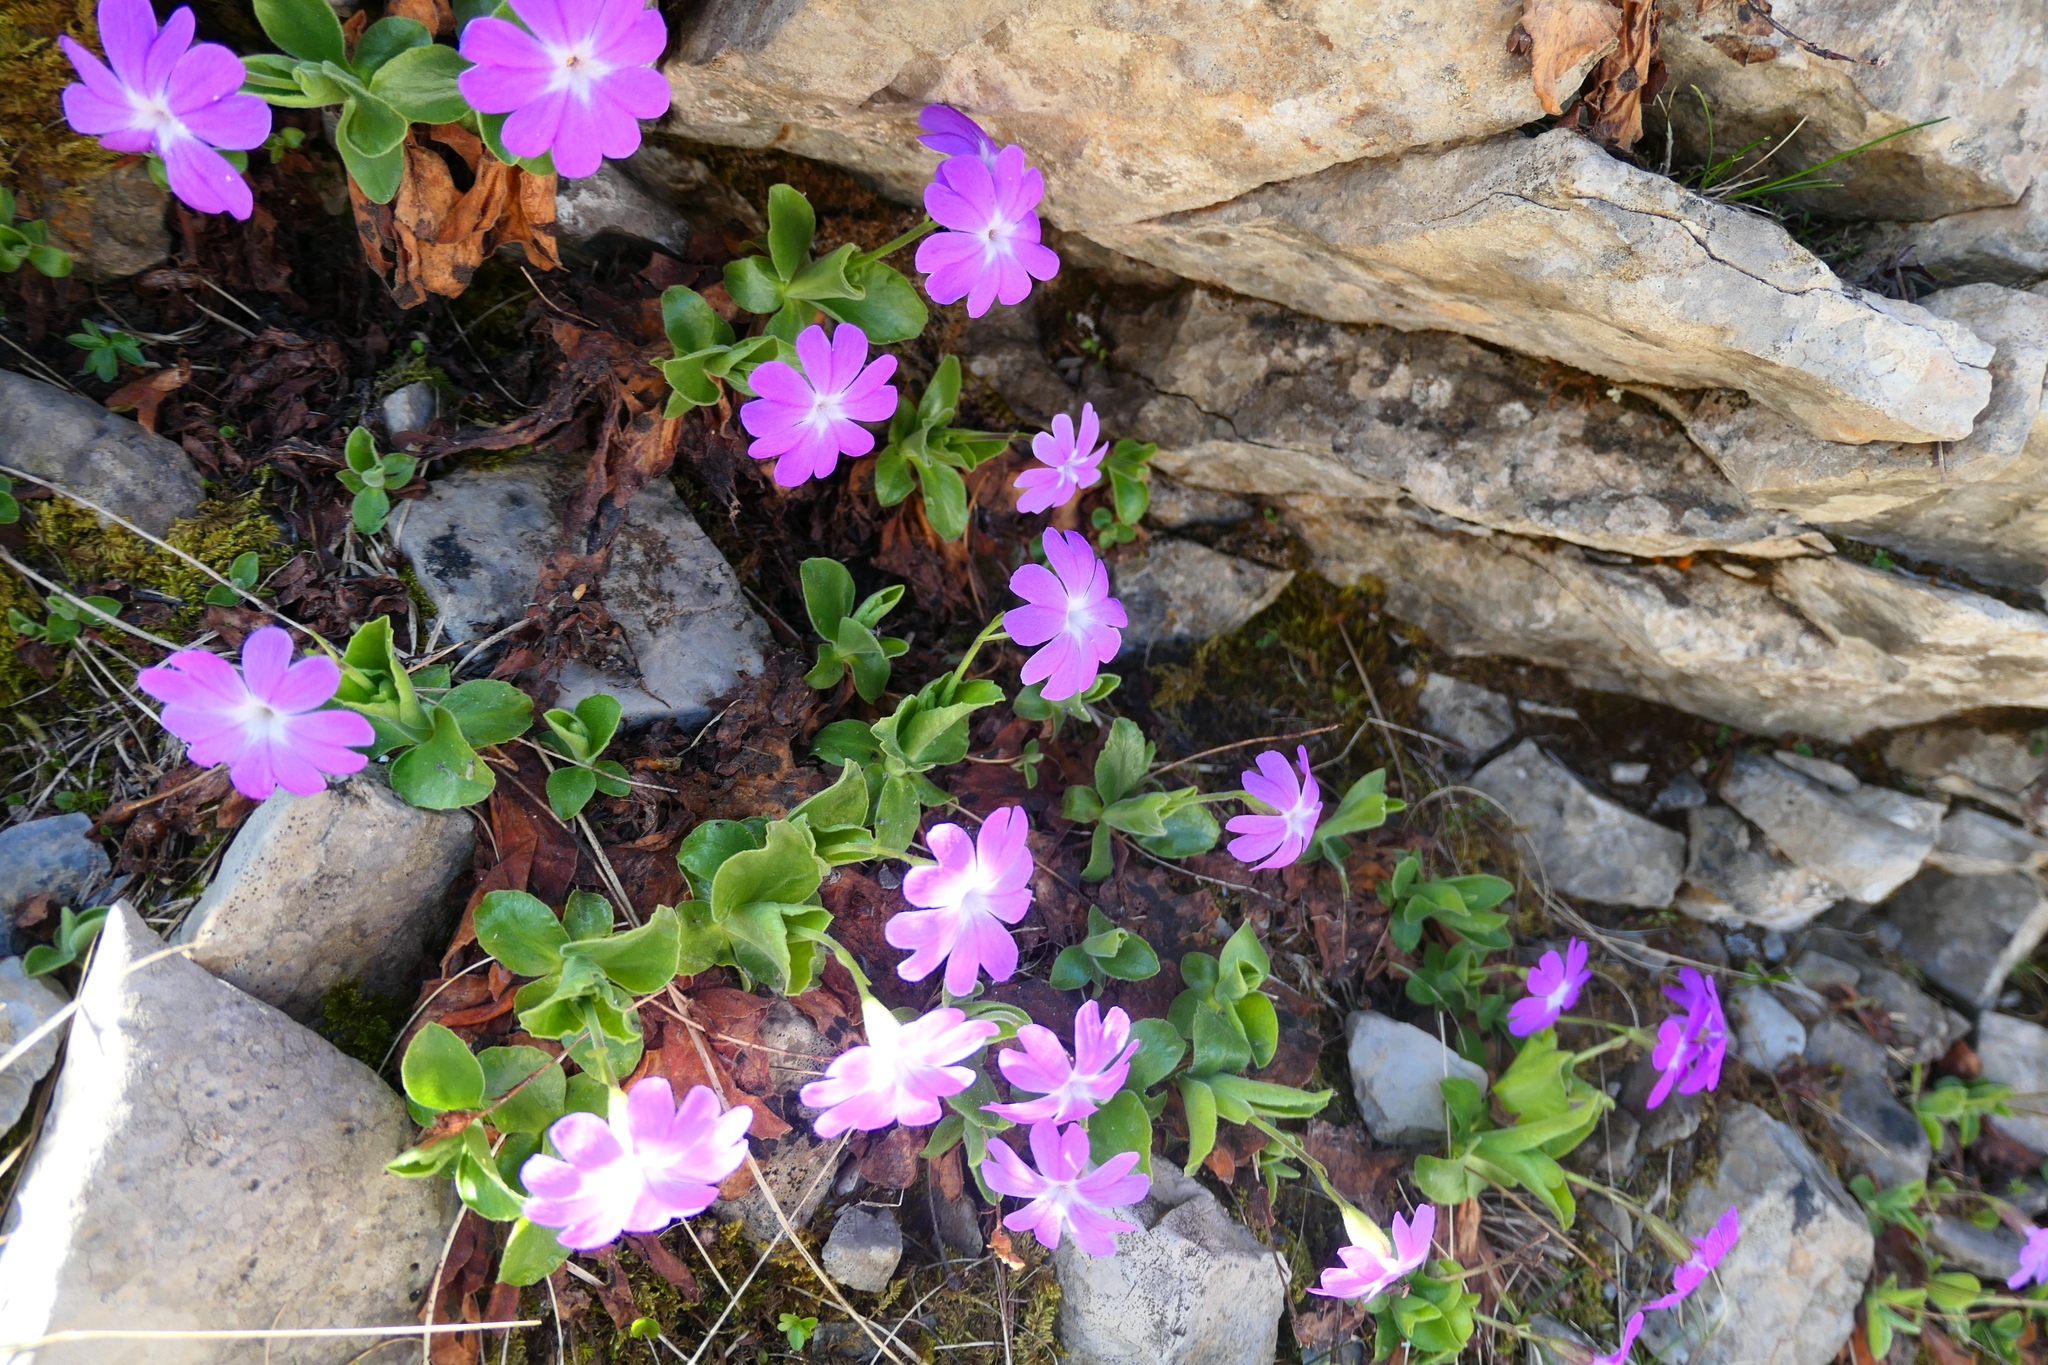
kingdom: Plantae
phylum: Tracheophyta
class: Magnoliopsida
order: Ericales
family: Primulaceae
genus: Primula
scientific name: Primula kitaibeliana
